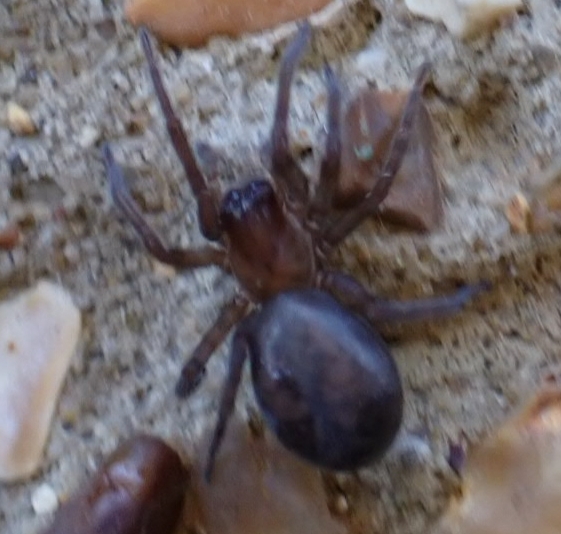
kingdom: Animalia
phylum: Arthropoda
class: Arachnida
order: Araneae
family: Amaurobiidae
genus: Amaurobius
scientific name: Amaurobius ferox
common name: Black laceweaver
